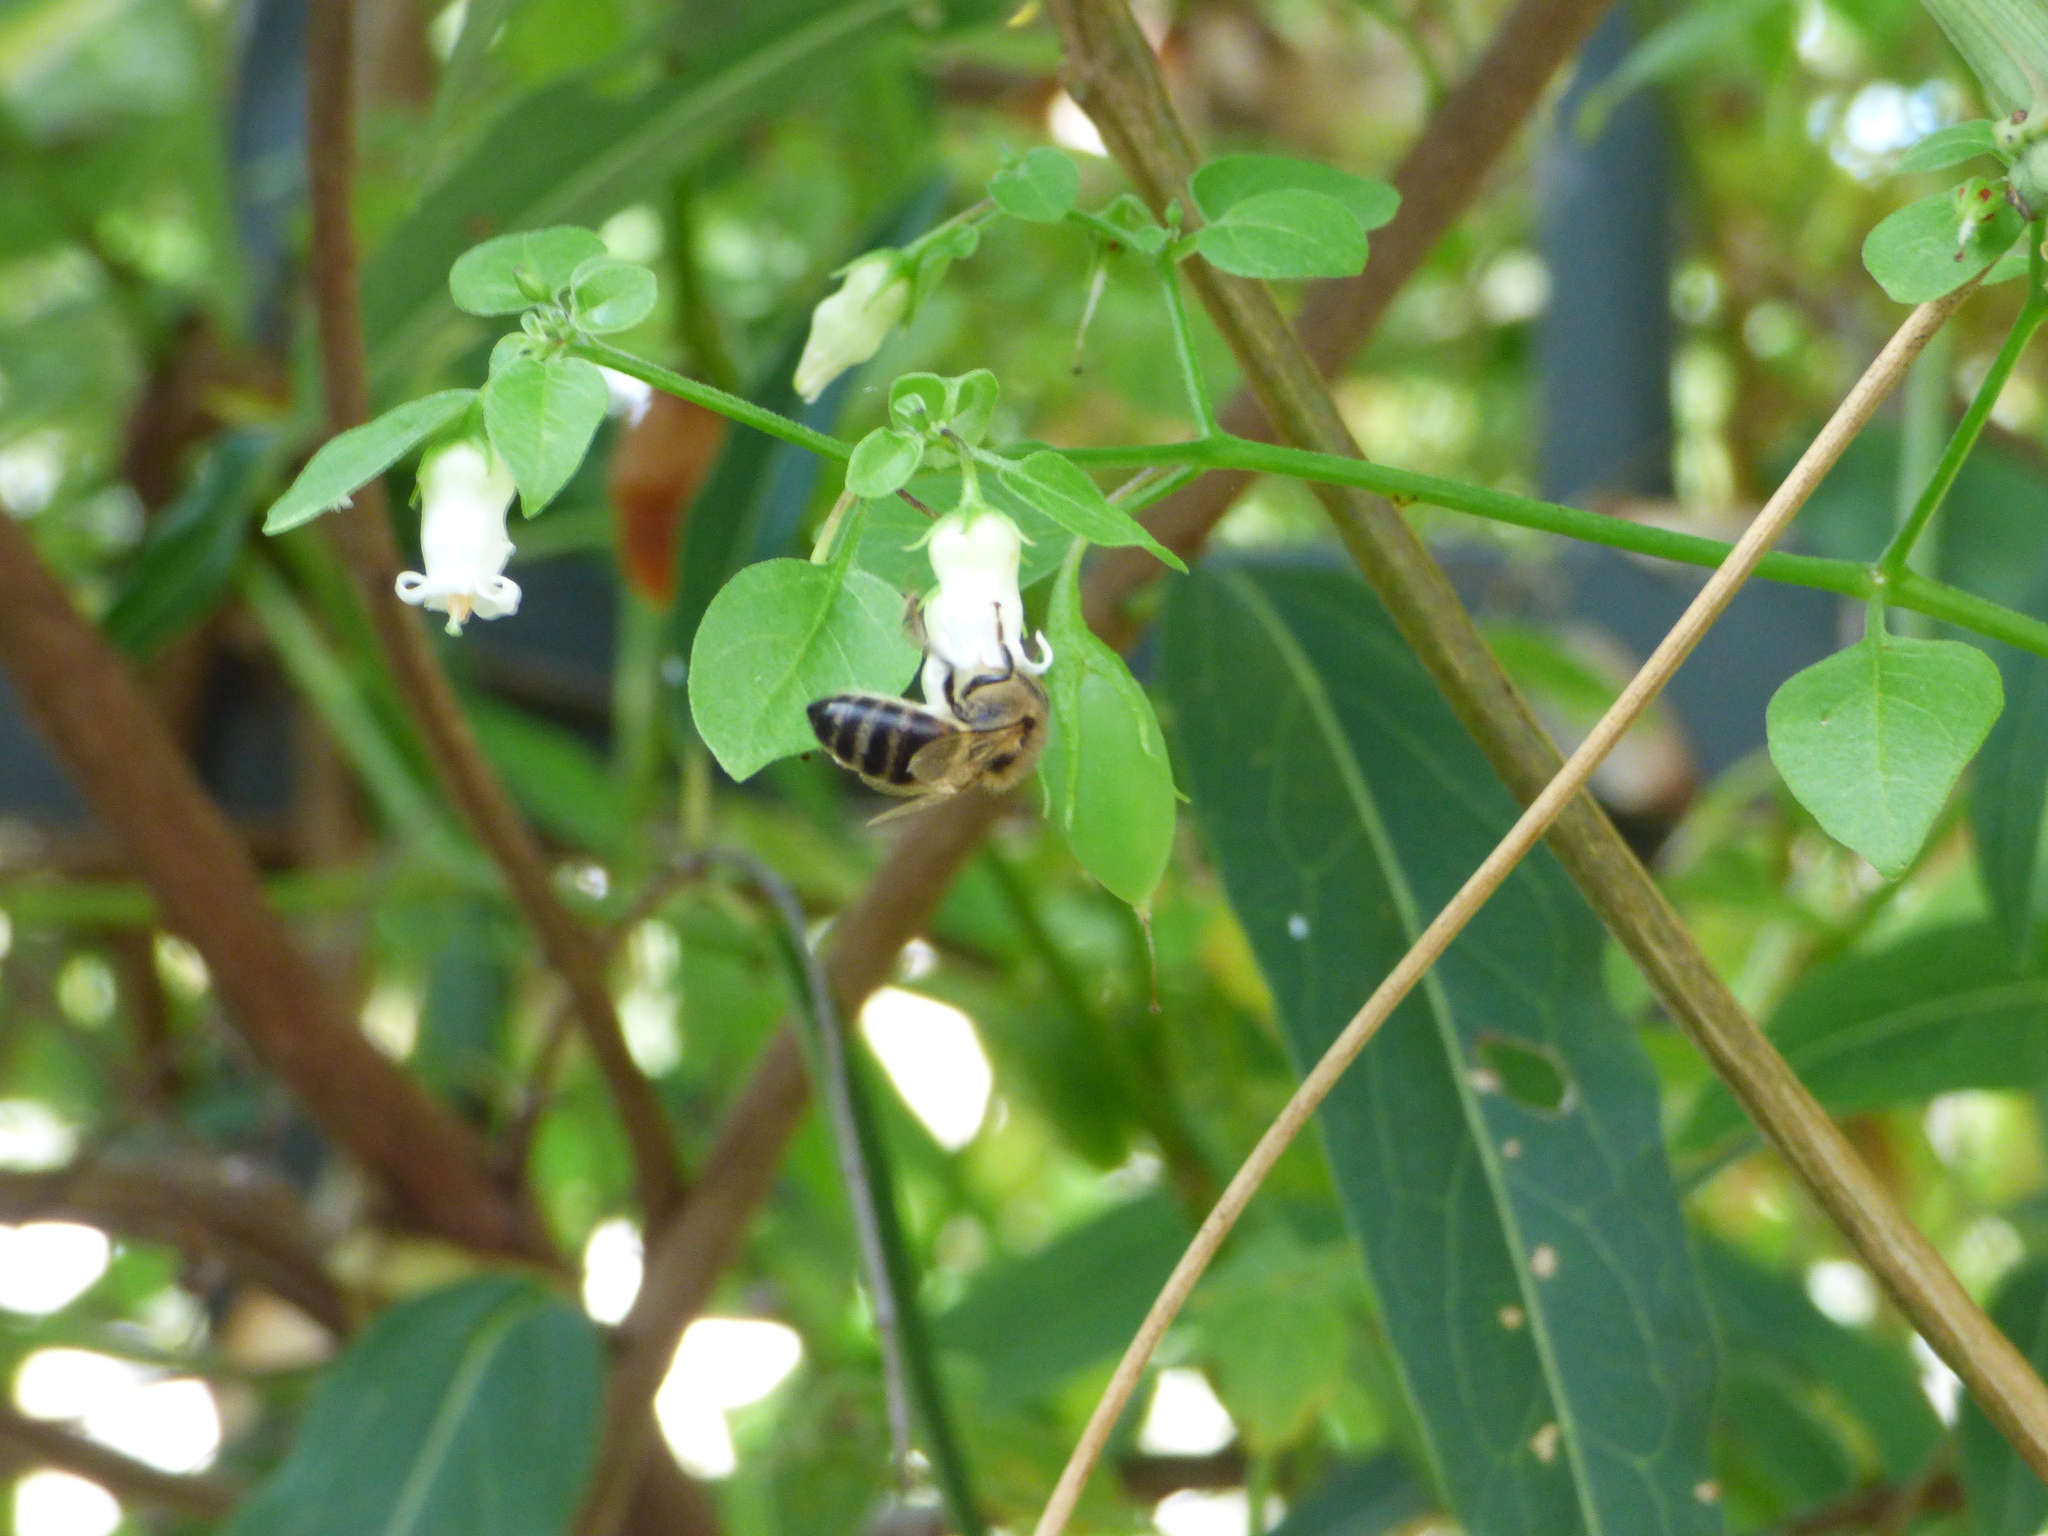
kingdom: Animalia
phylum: Arthropoda
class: Insecta
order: Hymenoptera
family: Apidae
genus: Apis
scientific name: Apis mellifera
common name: Honey bee
